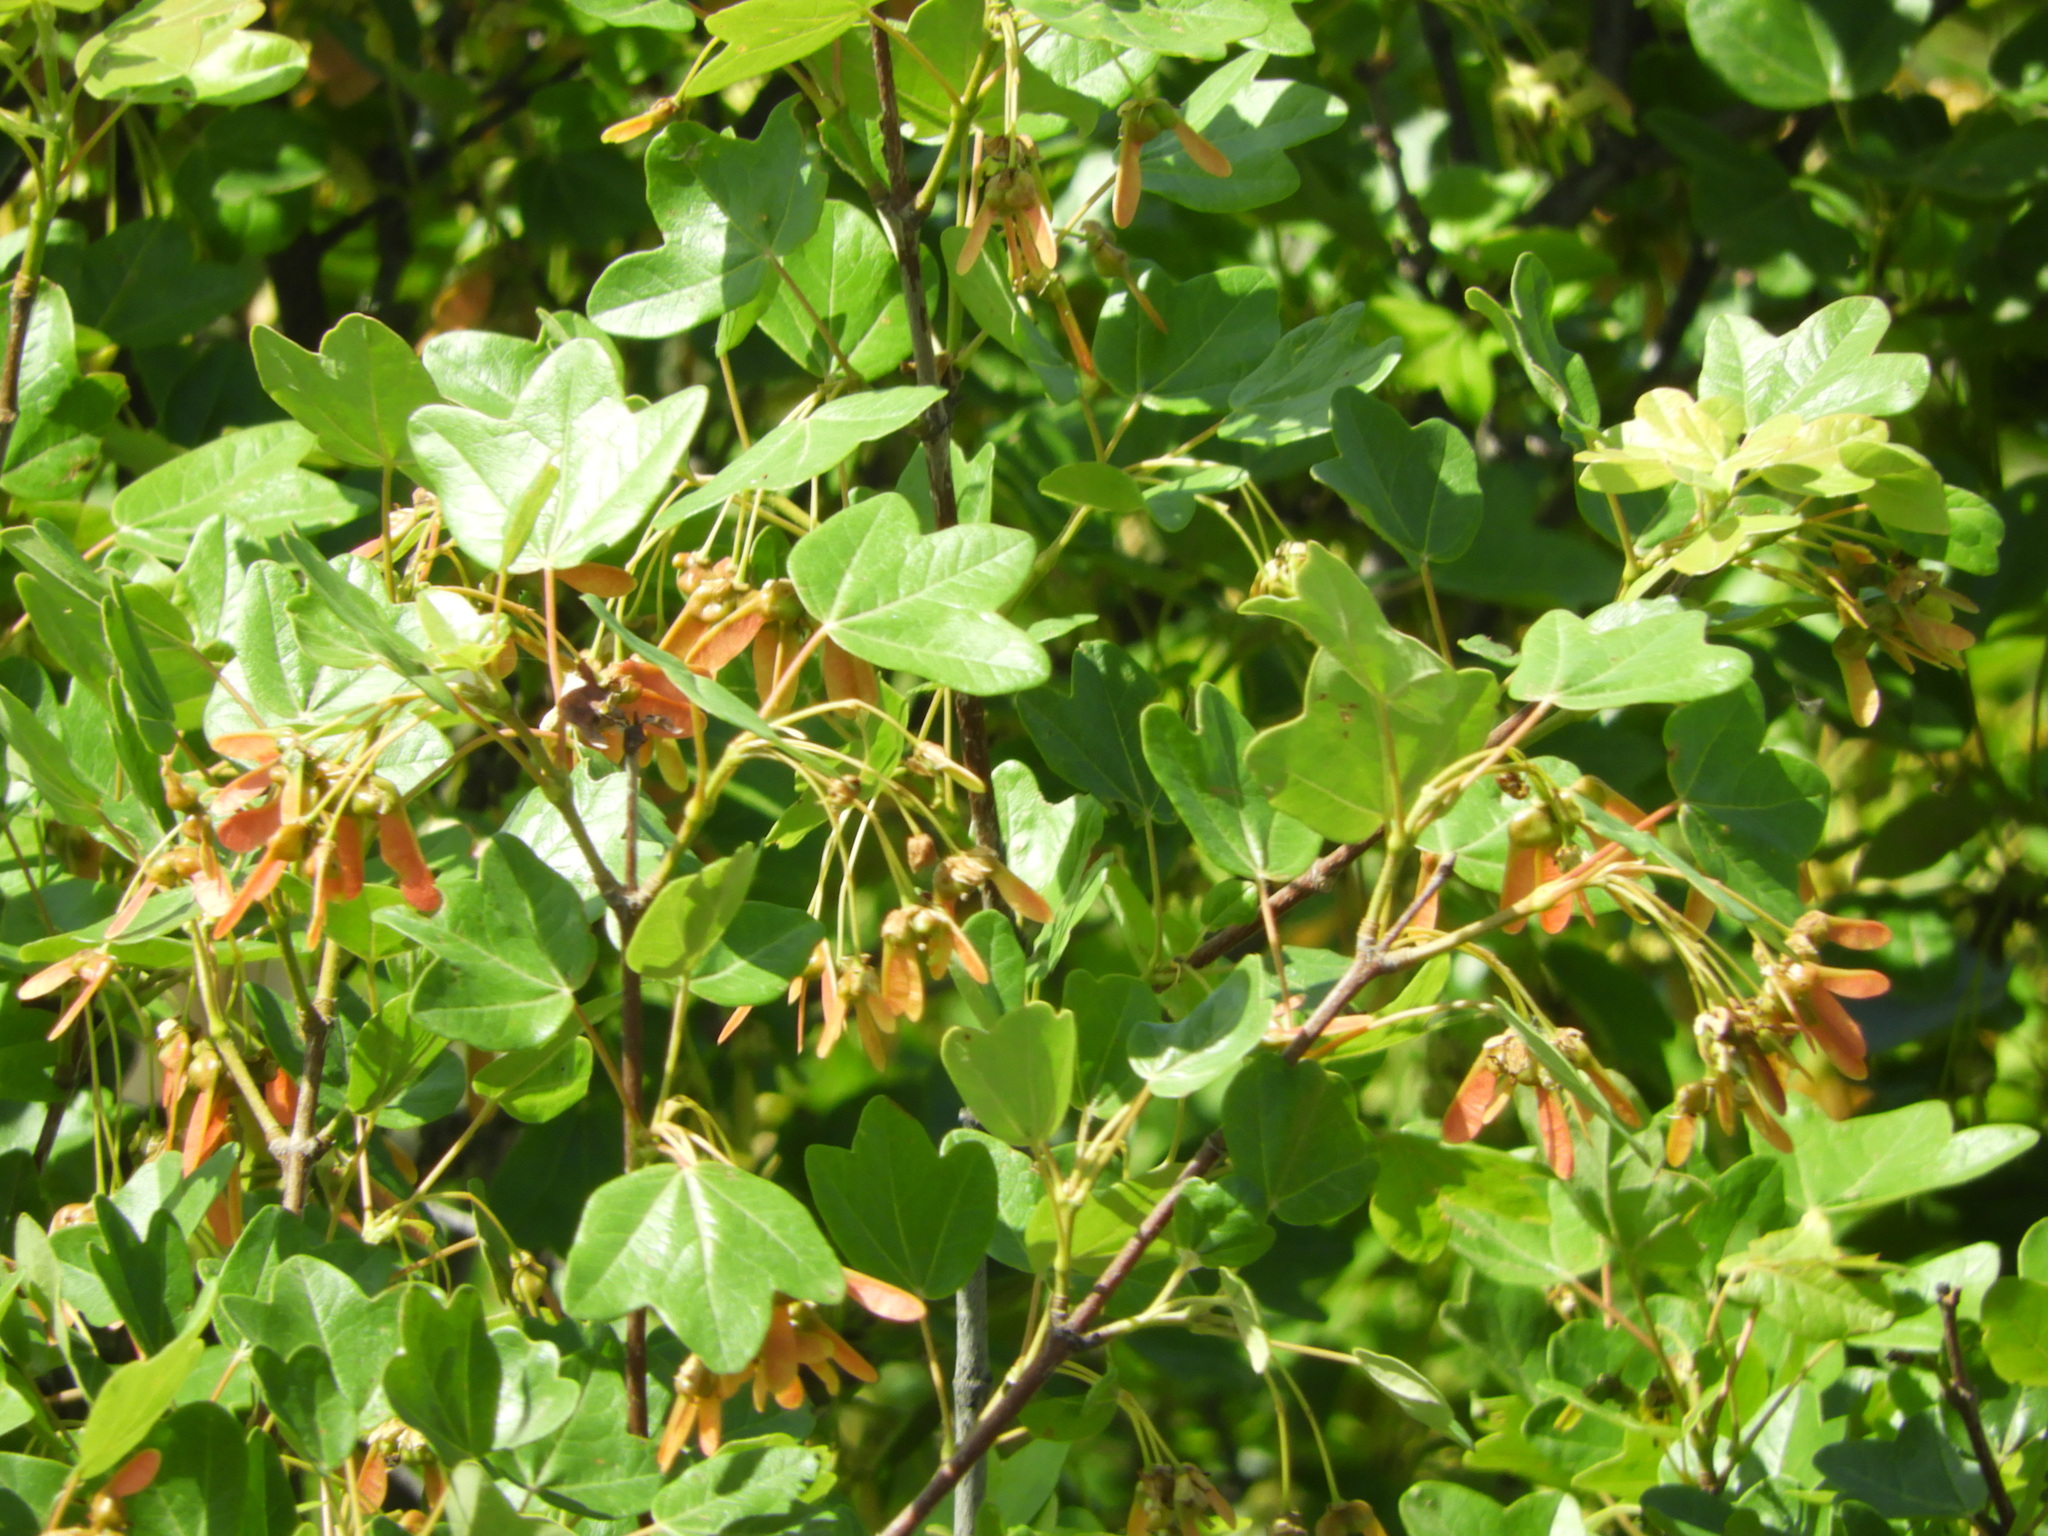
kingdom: Plantae
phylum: Tracheophyta
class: Magnoliopsida
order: Sapindales
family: Sapindaceae
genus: Acer
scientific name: Acer monspessulanum
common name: Montpellier maple
